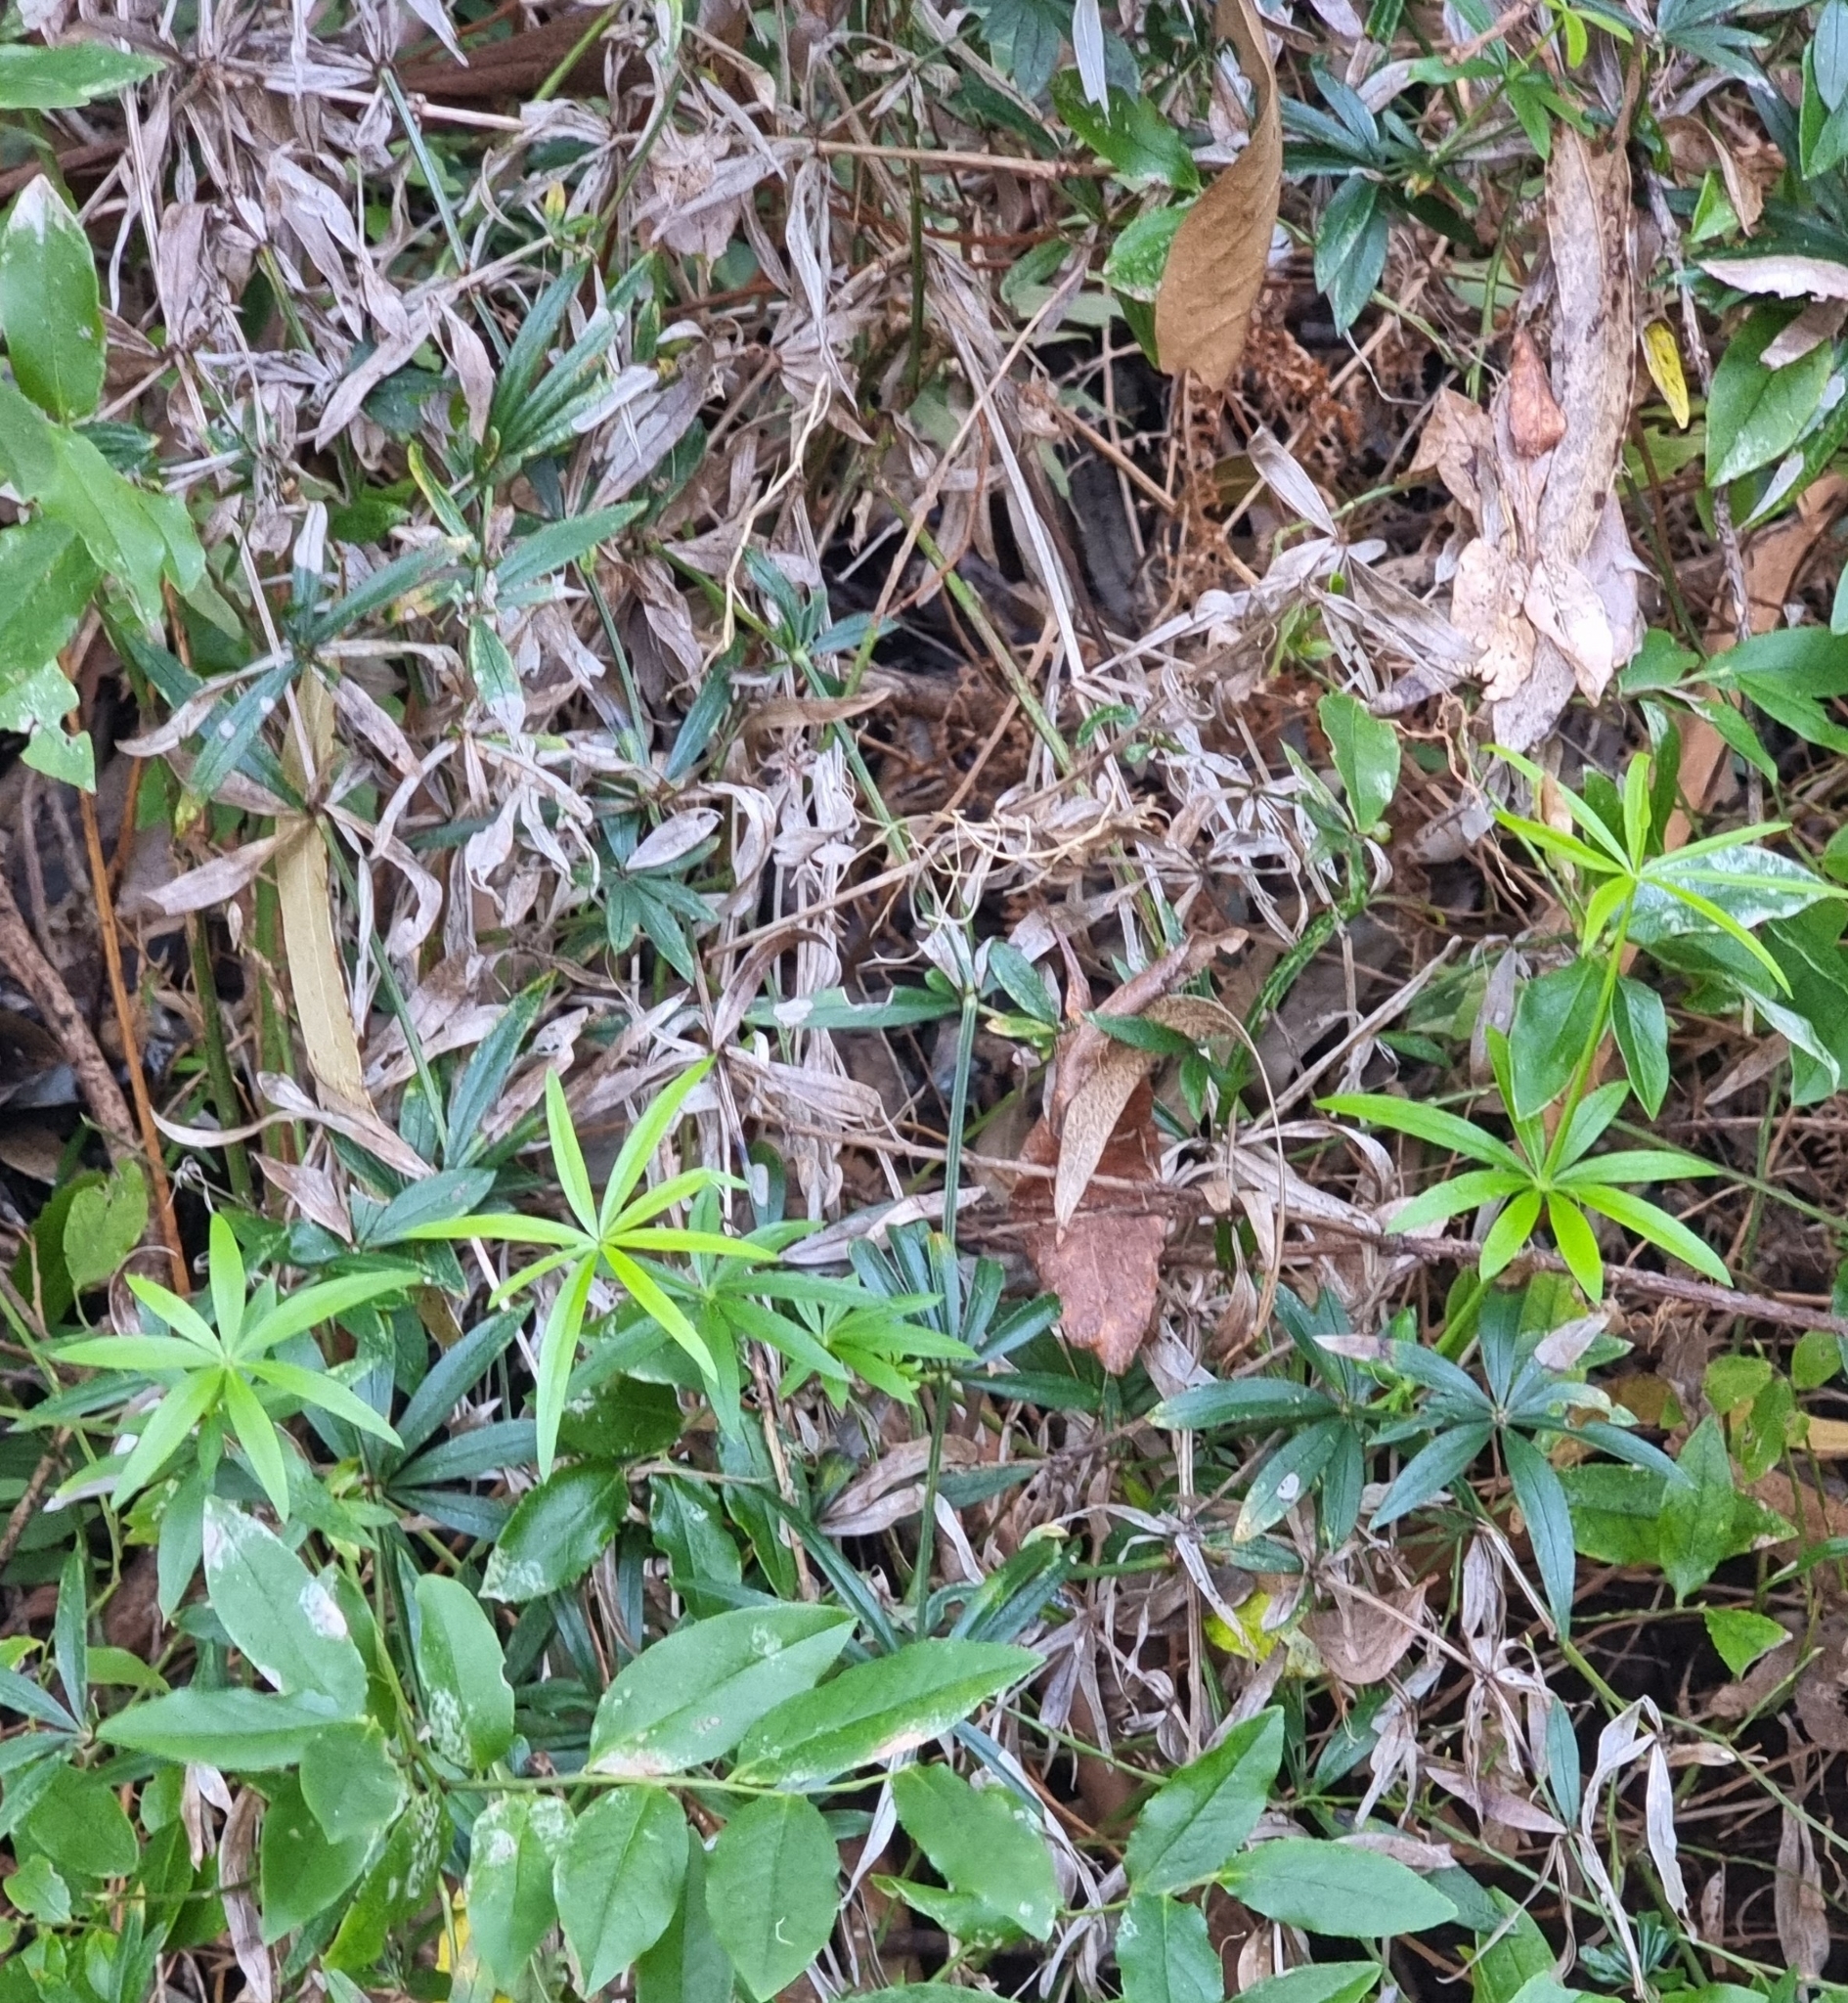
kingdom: Plantae
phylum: Tracheophyta
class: Magnoliopsida
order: Gentianales
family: Rubiaceae
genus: Rubia
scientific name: Rubia occidens
